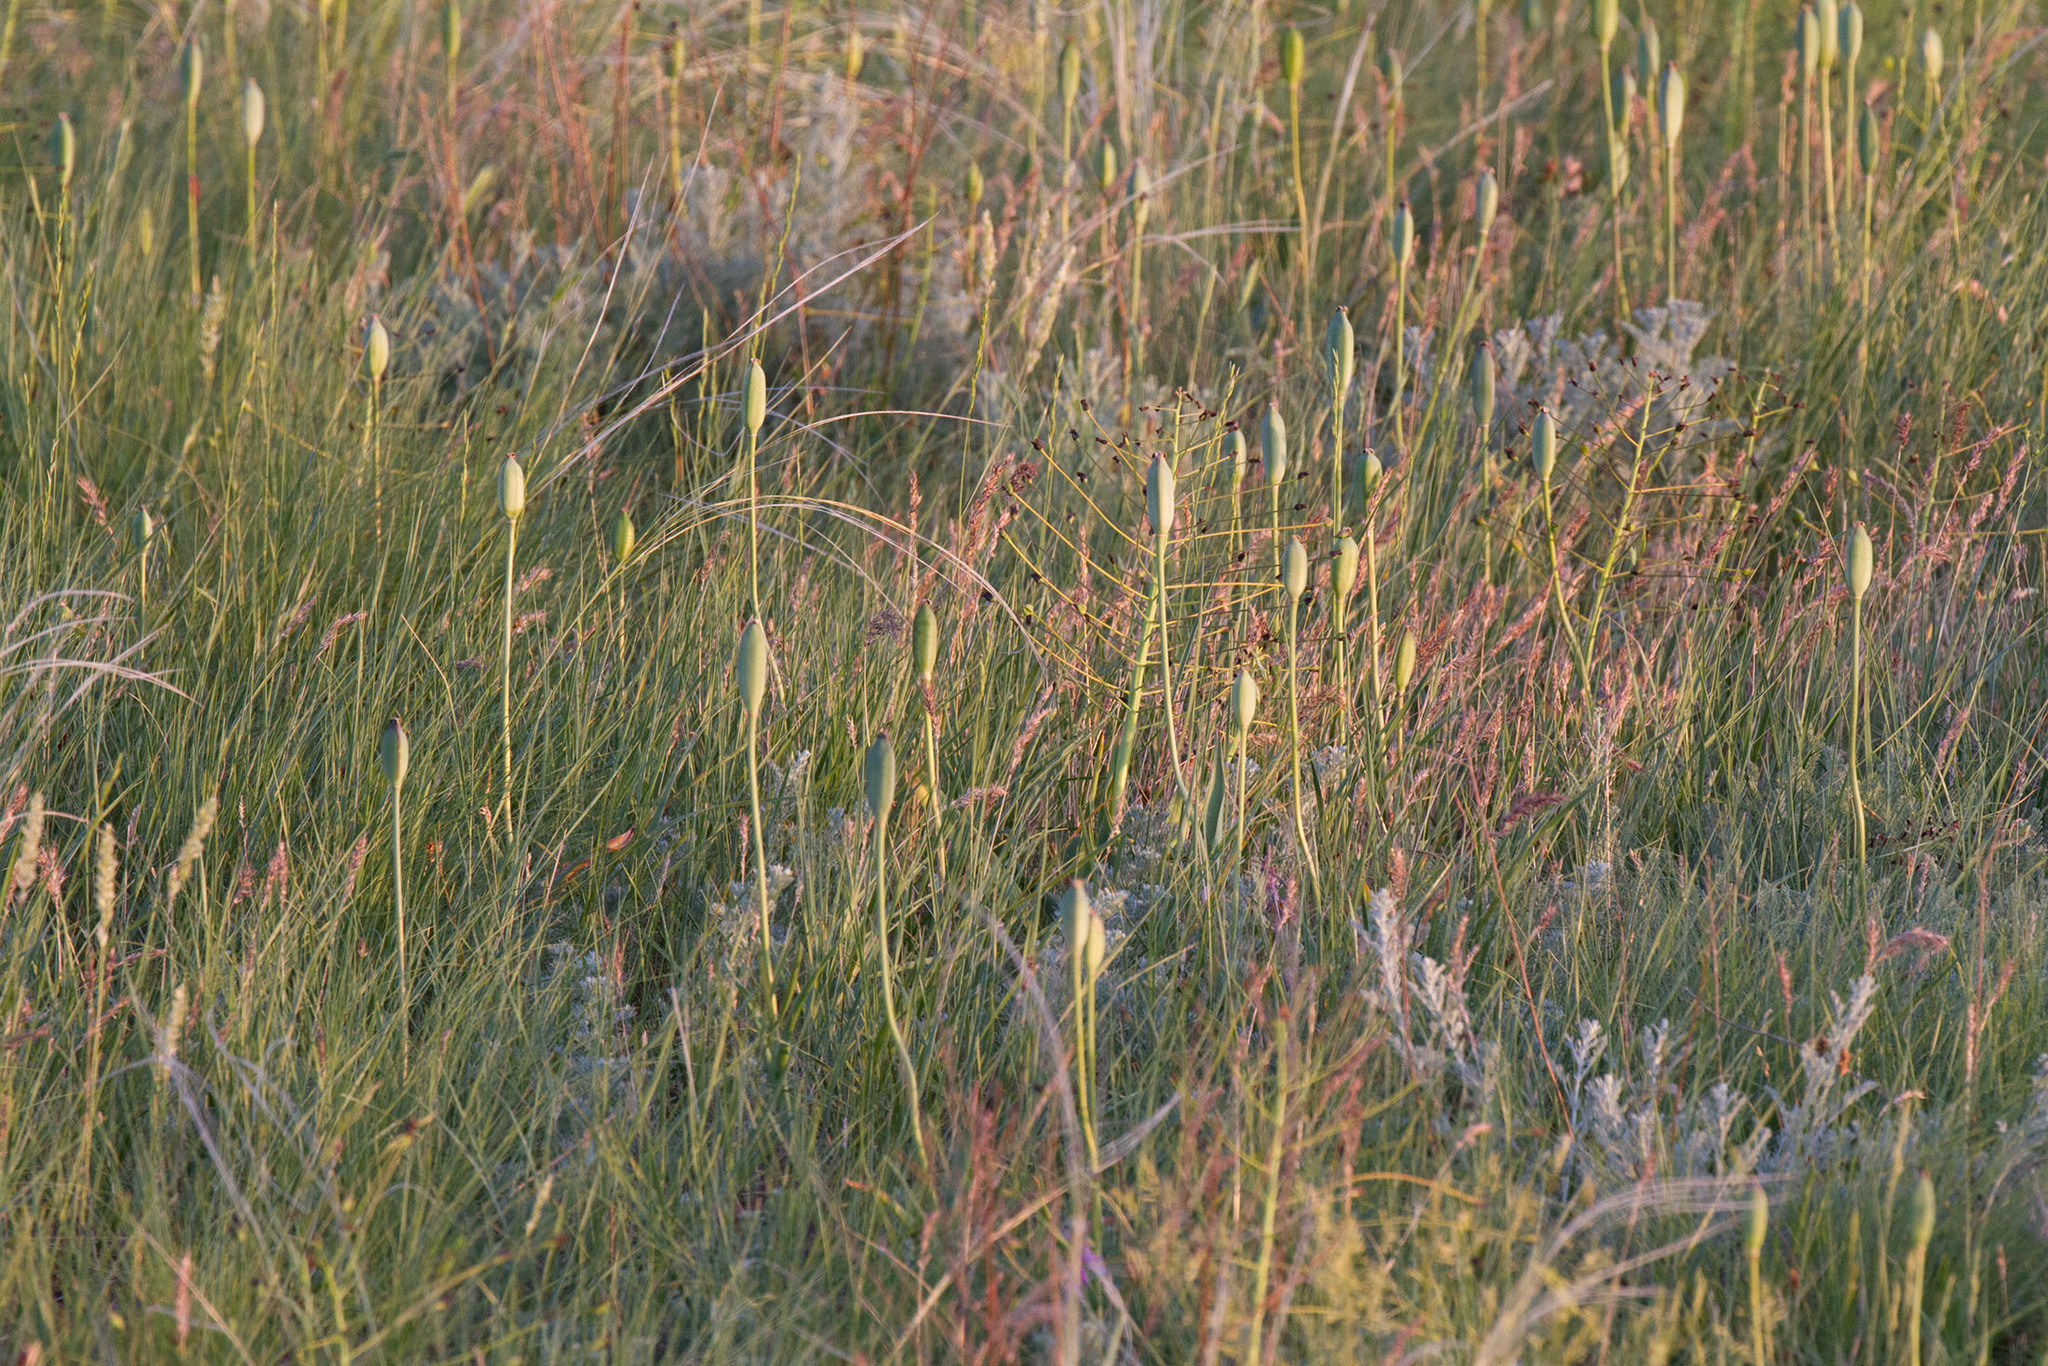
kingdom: Plantae
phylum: Tracheophyta
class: Liliopsida
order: Liliales
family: Liliaceae
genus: Tulipa
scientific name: Tulipa suaveolens
